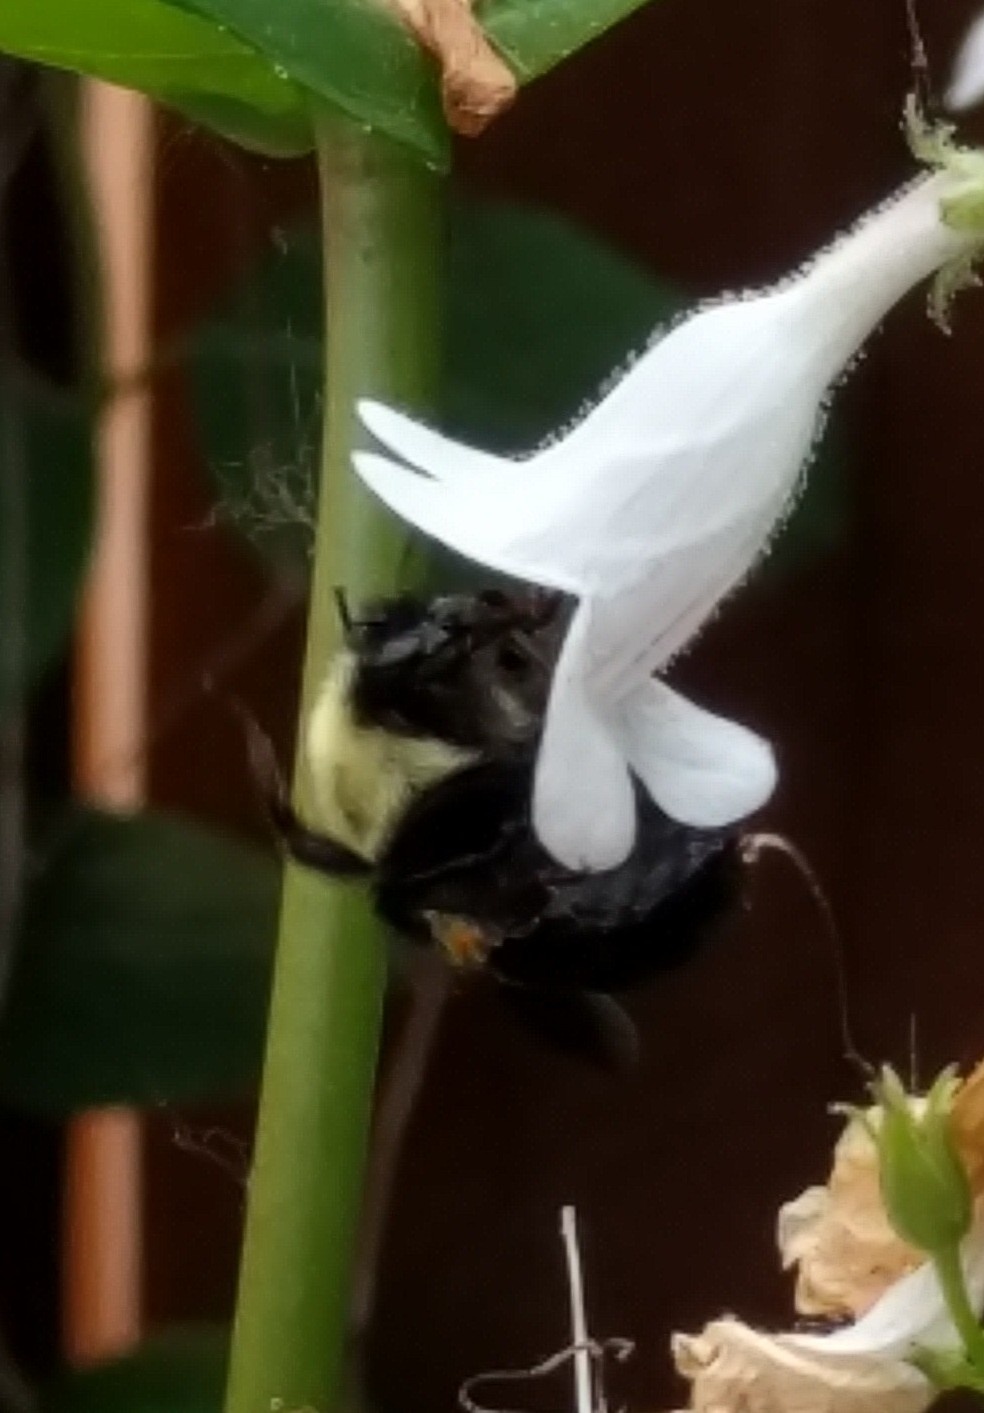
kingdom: Animalia
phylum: Arthropoda
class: Insecta
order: Hymenoptera
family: Apidae
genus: Bombus
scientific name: Bombus
